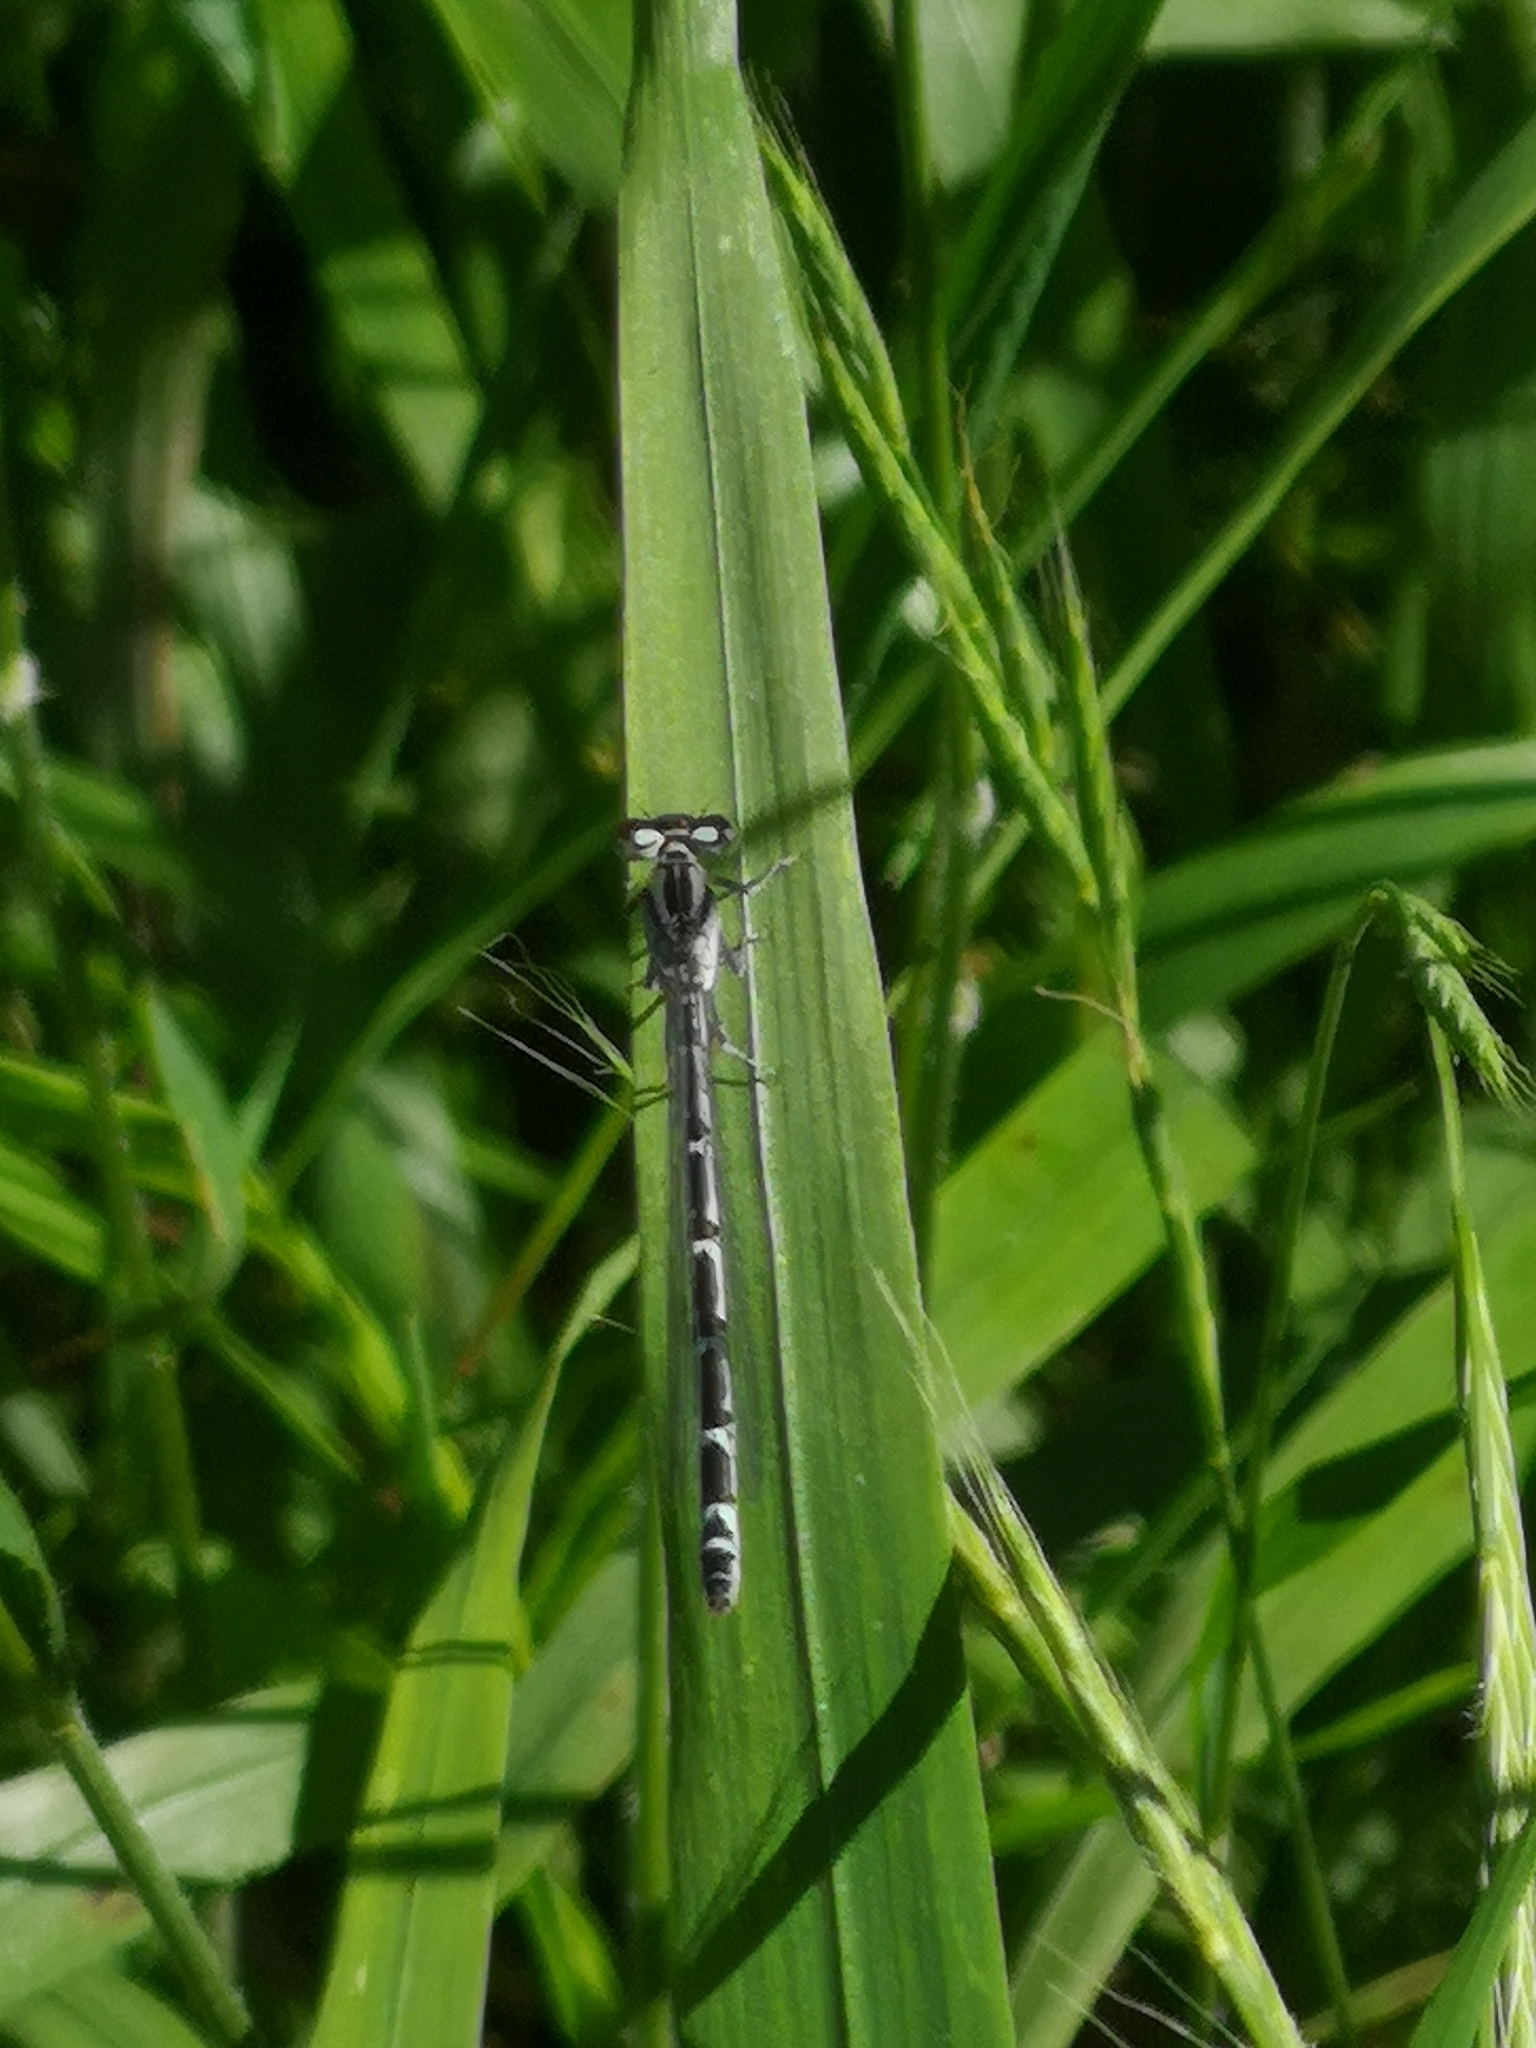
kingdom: Animalia
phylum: Arthropoda
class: Insecta
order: Odonata
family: Coenagrionidae
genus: Enallagma
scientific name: Enallagma cyathigerum
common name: Common blue damselfly
